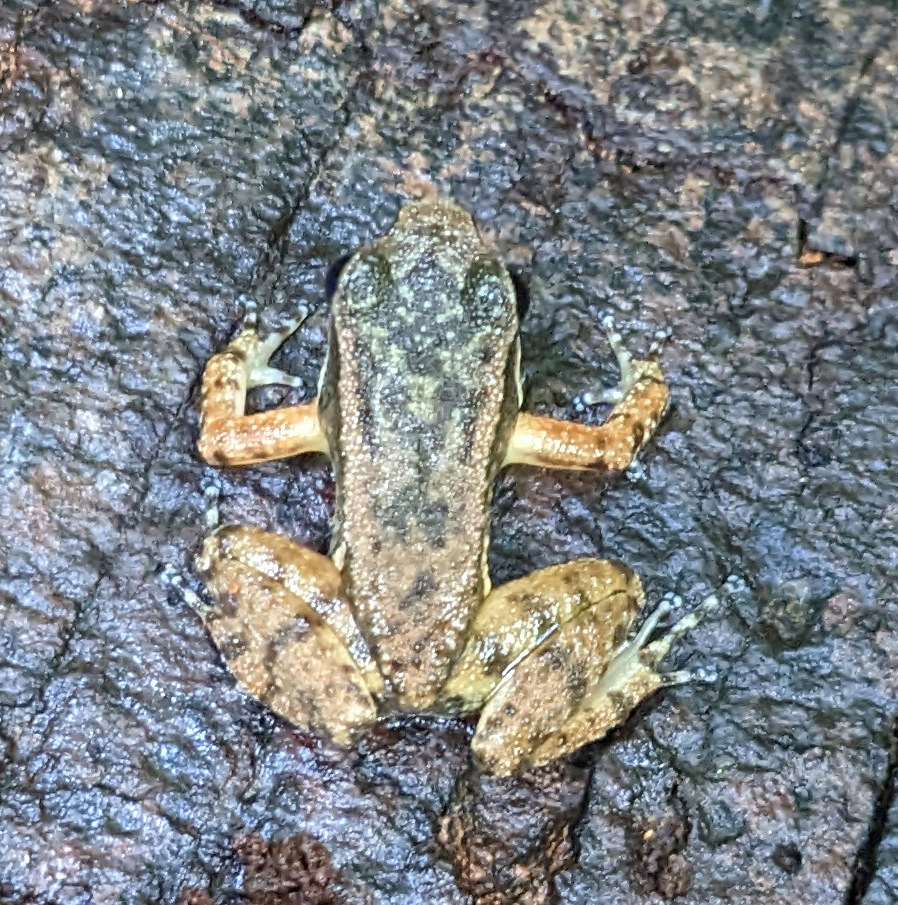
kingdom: Animalia
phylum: Chordata
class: Amphibia
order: Anura
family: Aromobatidae
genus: Mannophryne
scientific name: Mannophryne trinitatis
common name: Trinidad poison frog
